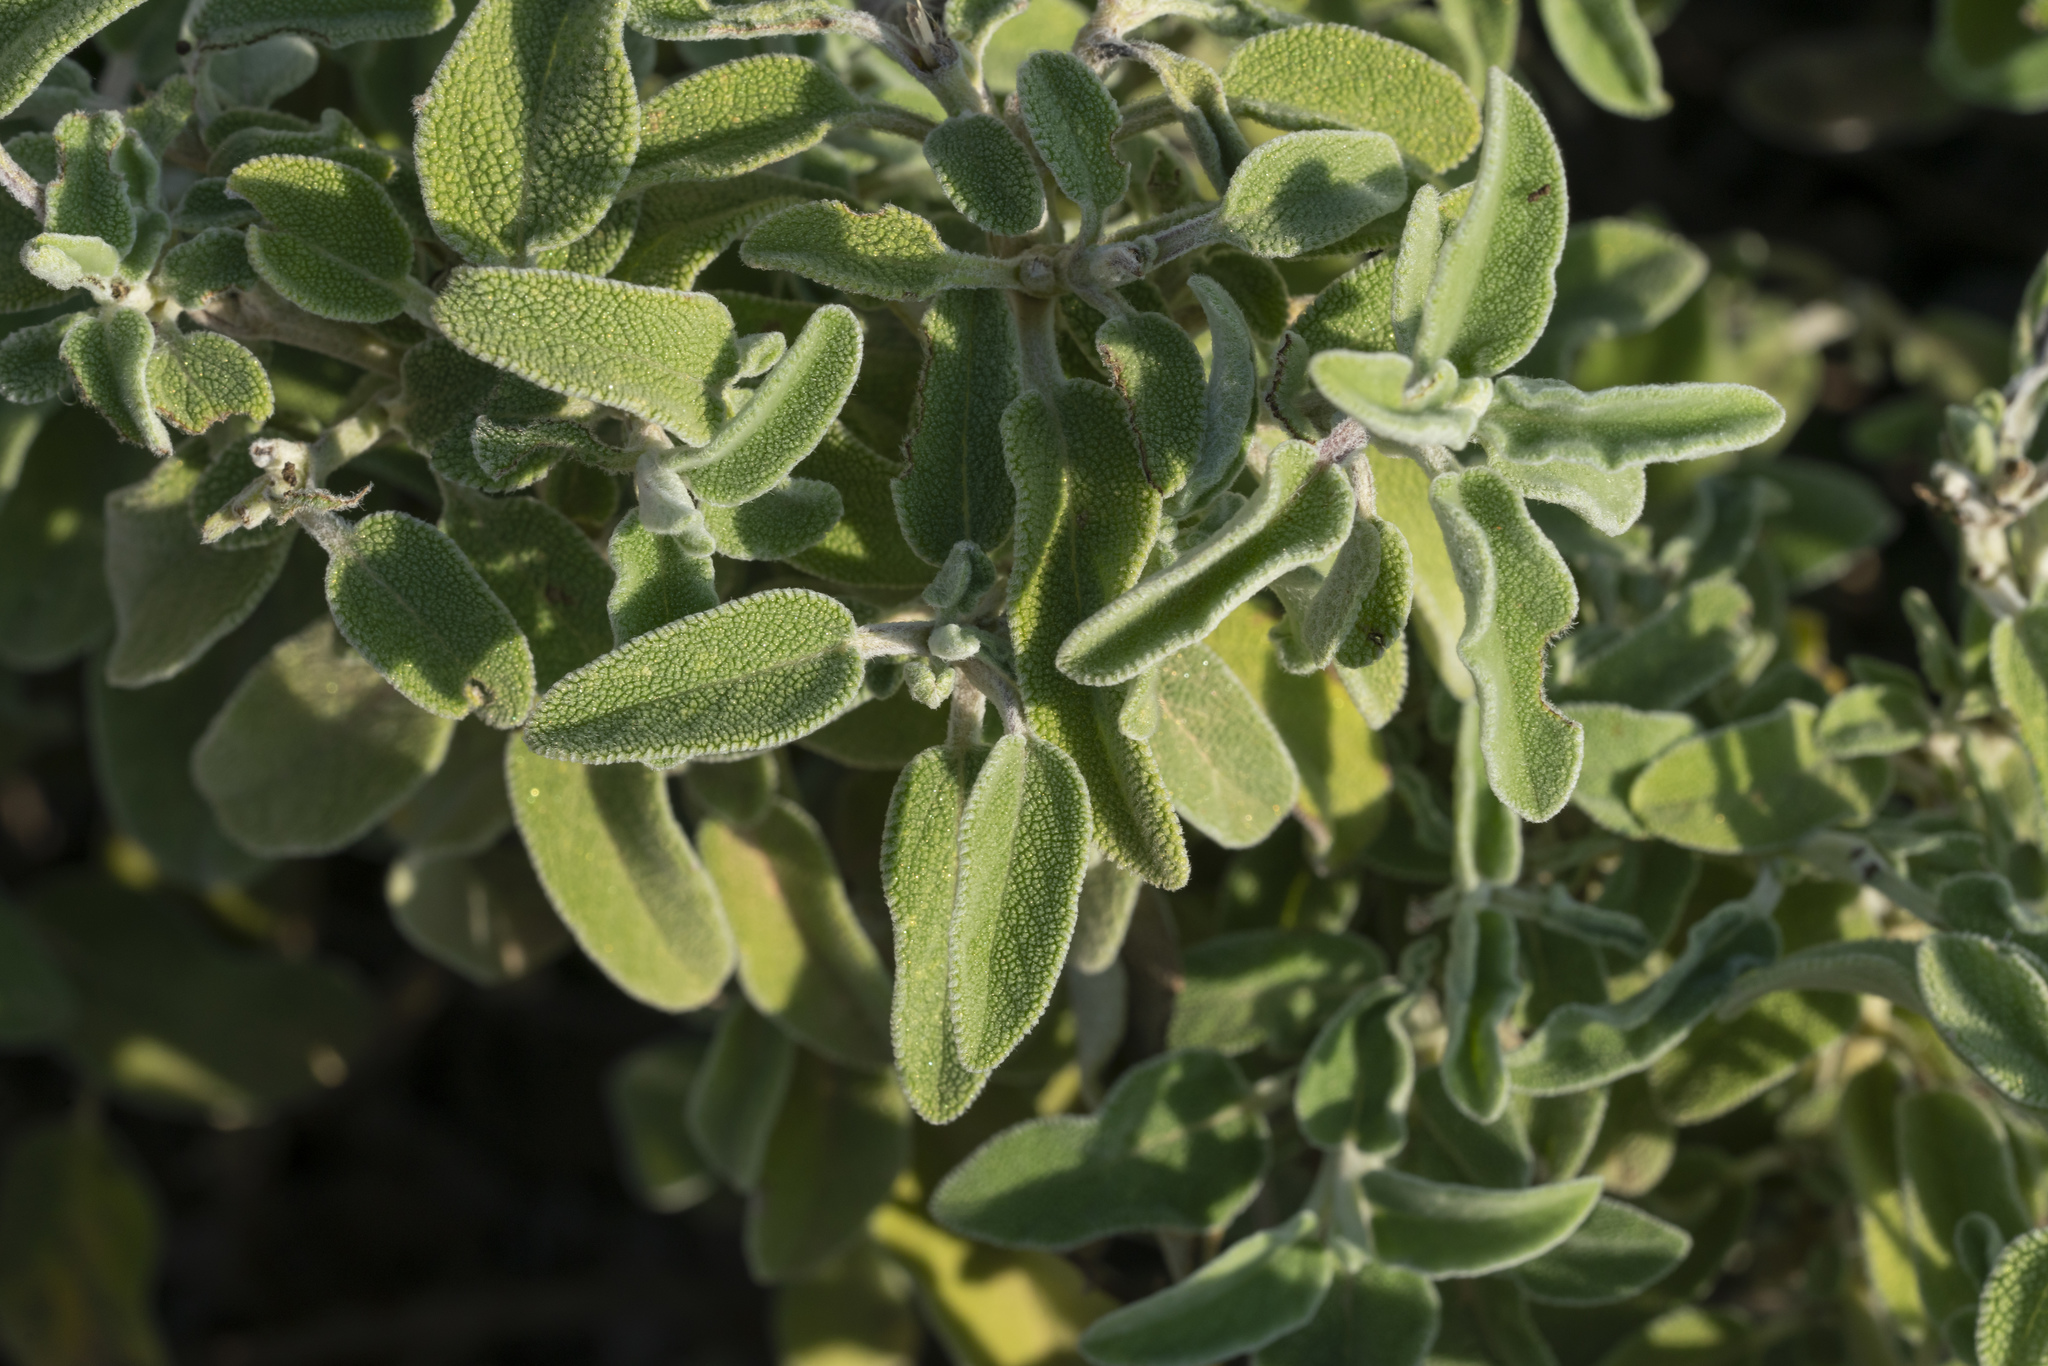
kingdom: Plantae
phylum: Tracheophyta
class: Magnoliopsida
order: Lamiales
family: Lamiaceae
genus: Salvia
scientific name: Salvia fruticosa
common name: Greek sage
